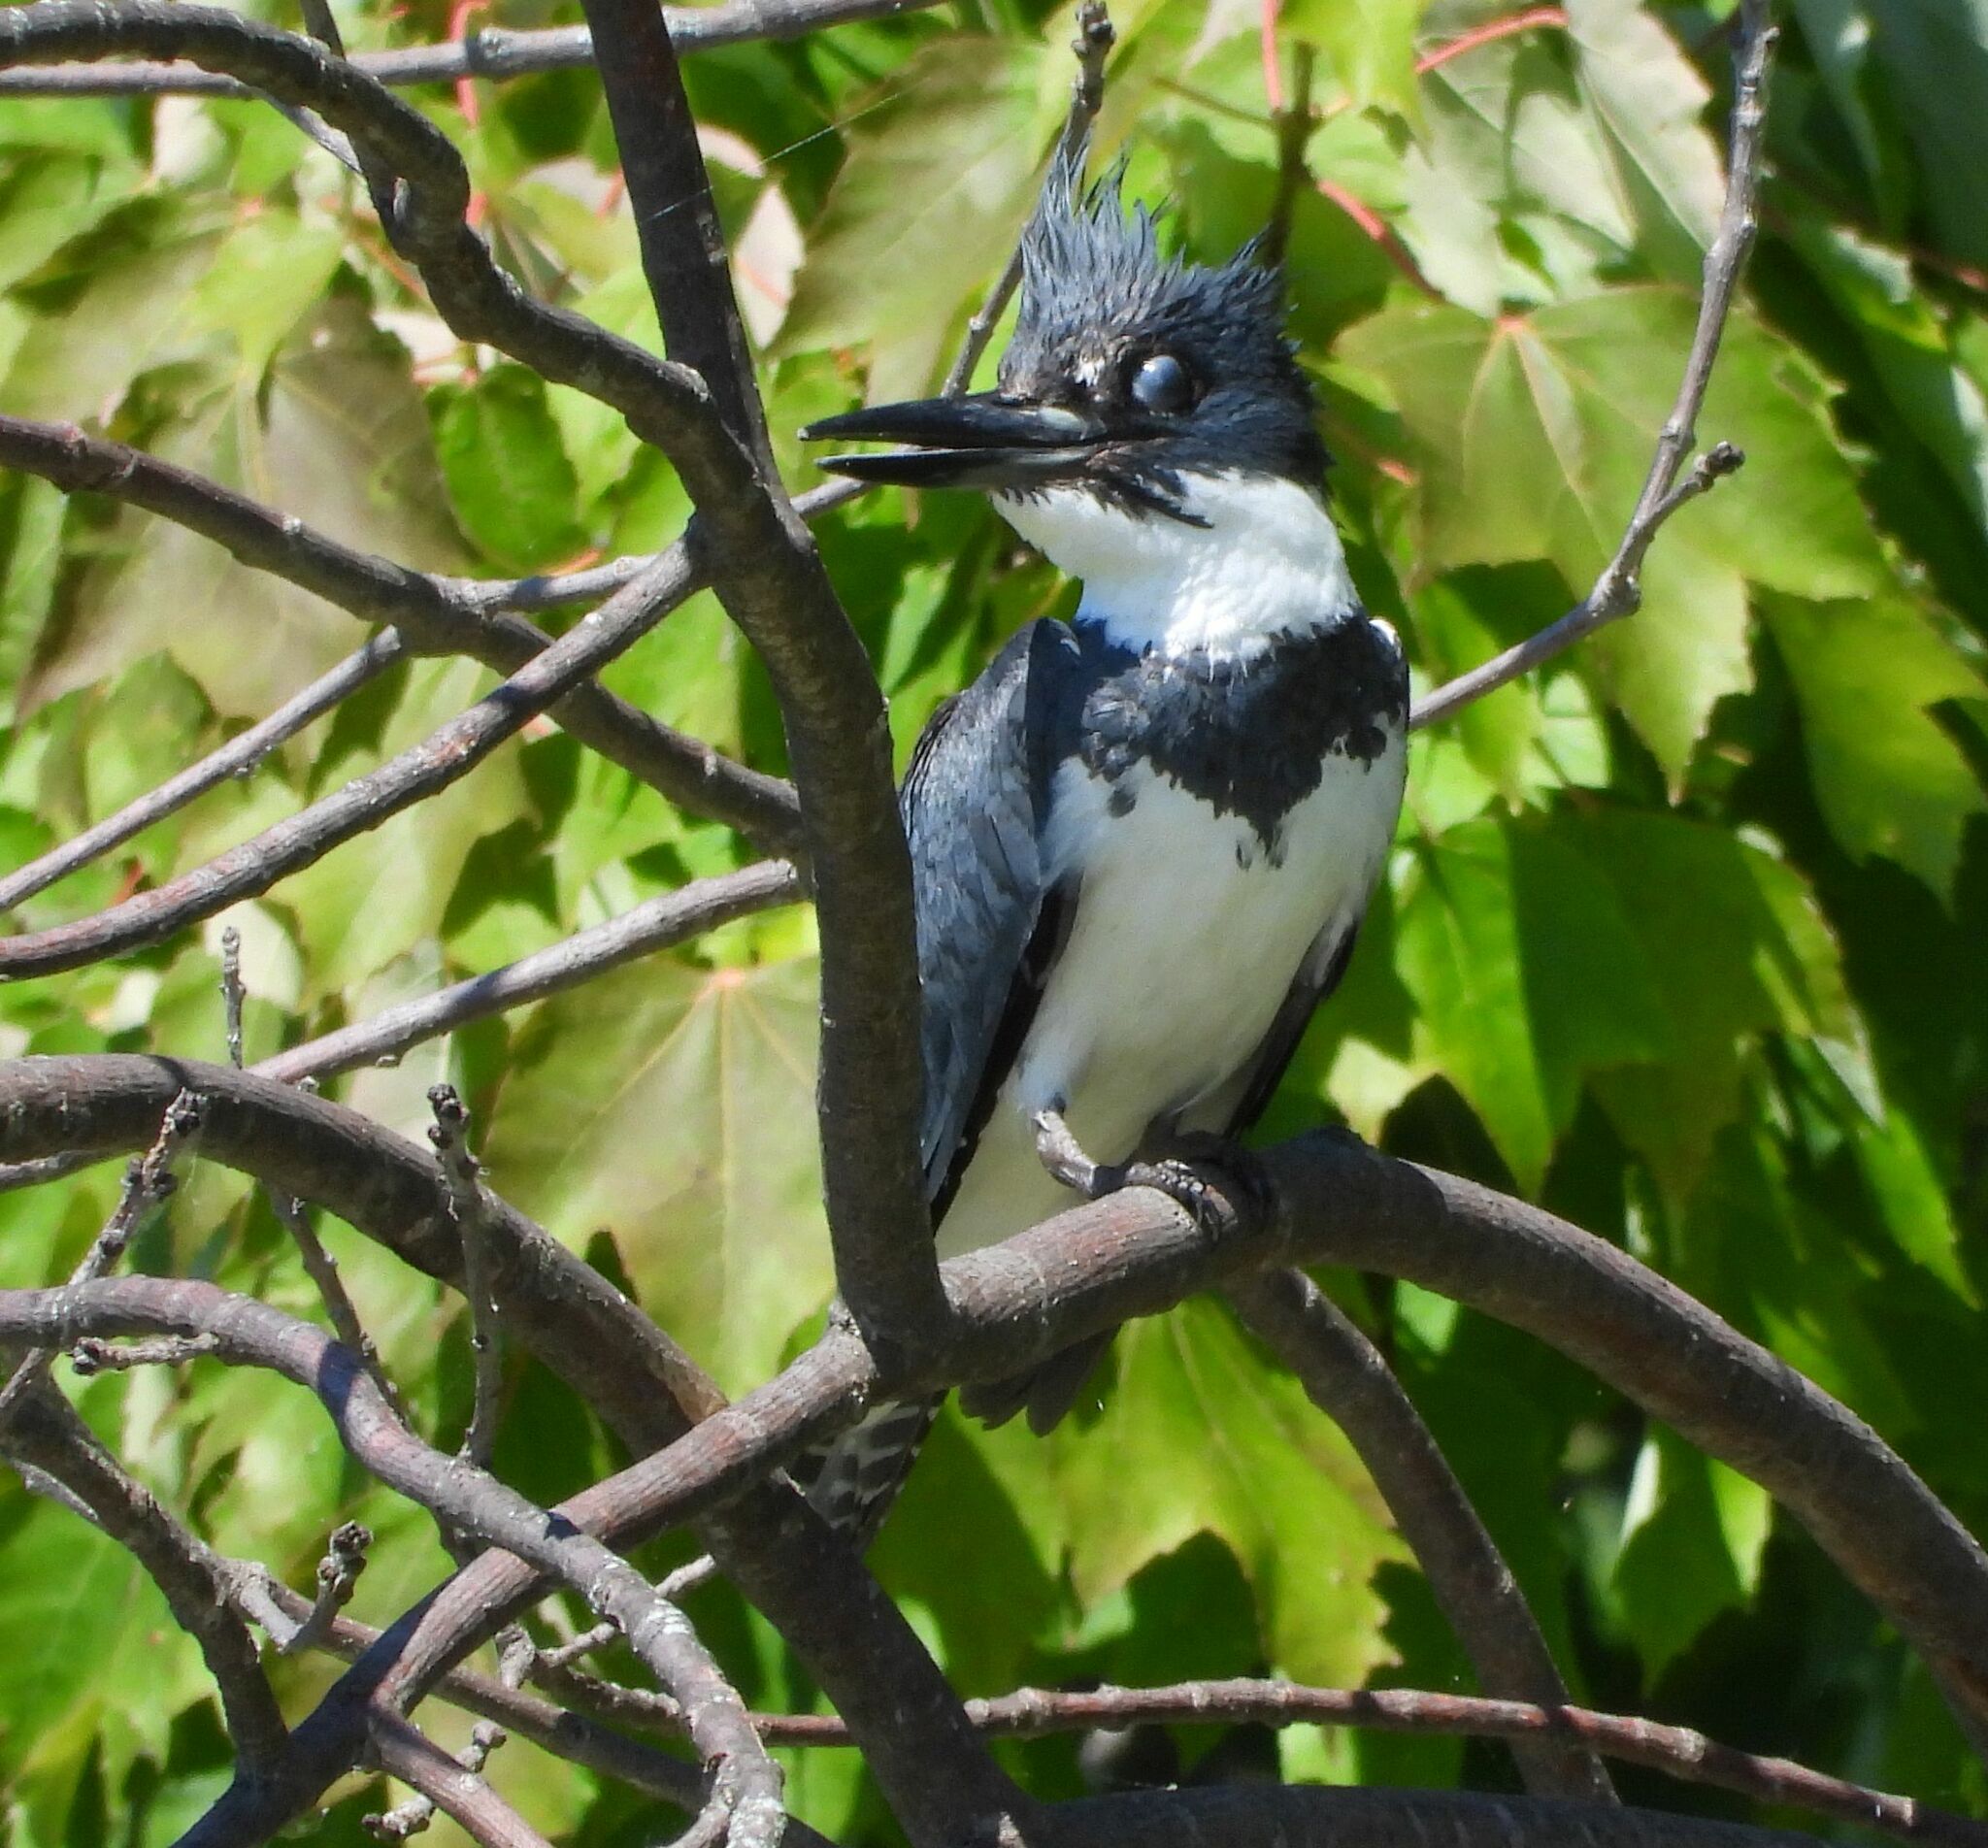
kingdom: Animalia
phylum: Chordata
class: Aves
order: Coraciiformes
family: Alcedinidae
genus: Megaceryle
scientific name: Megaceryle alcyon
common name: Belted kingfisher
